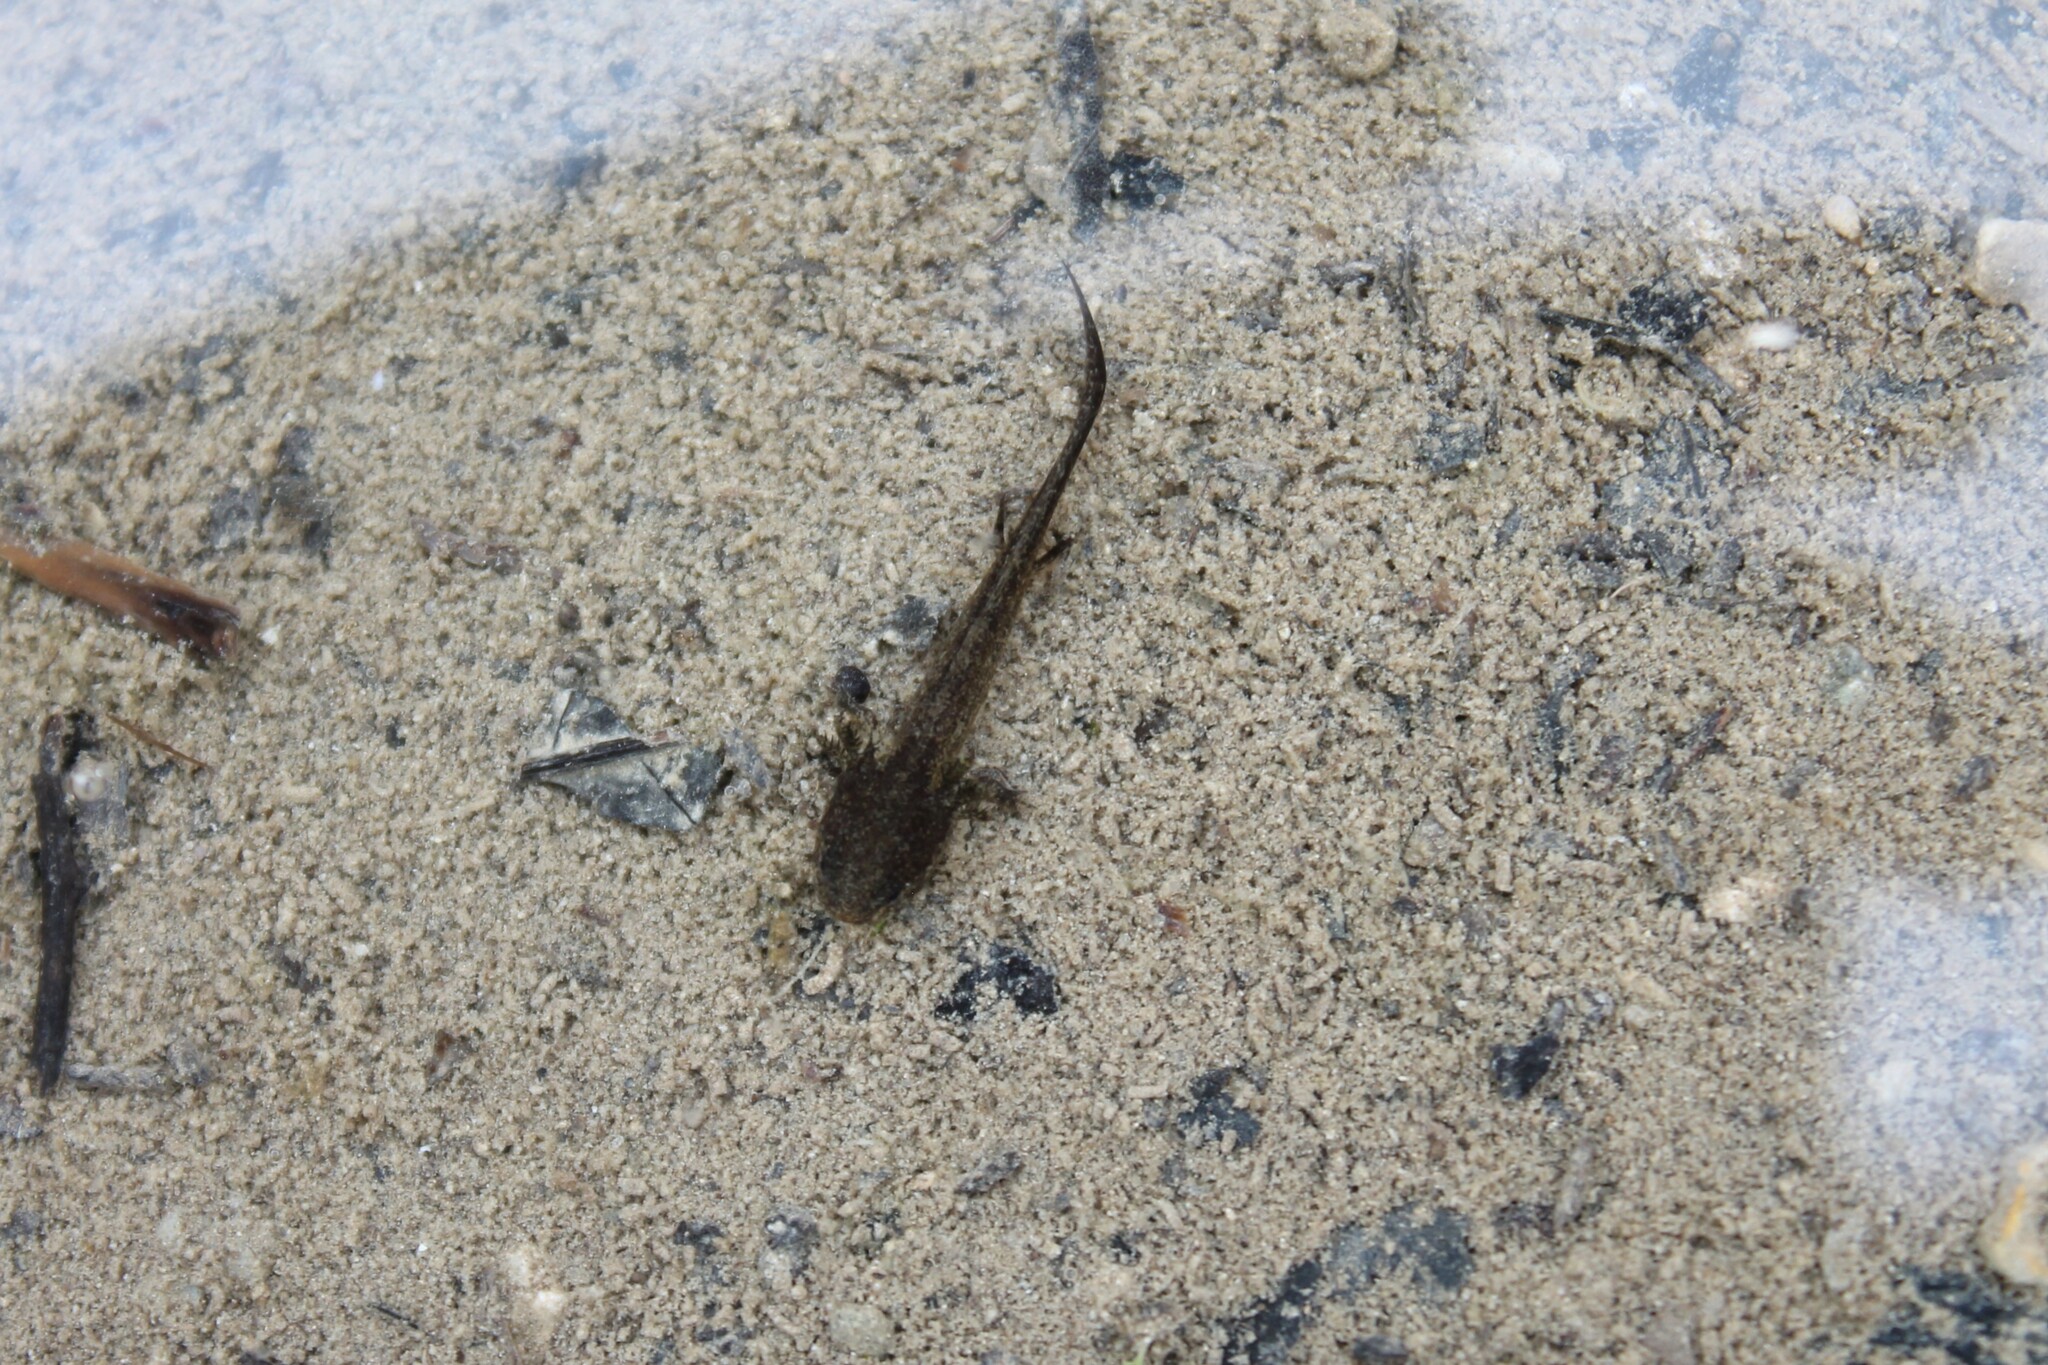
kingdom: Animalia
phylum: Chordata
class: Amphibia
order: Caudata
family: Ambystomatidae
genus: Ambystoma
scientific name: Ambystoma barbouri
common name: Streamside salamander
